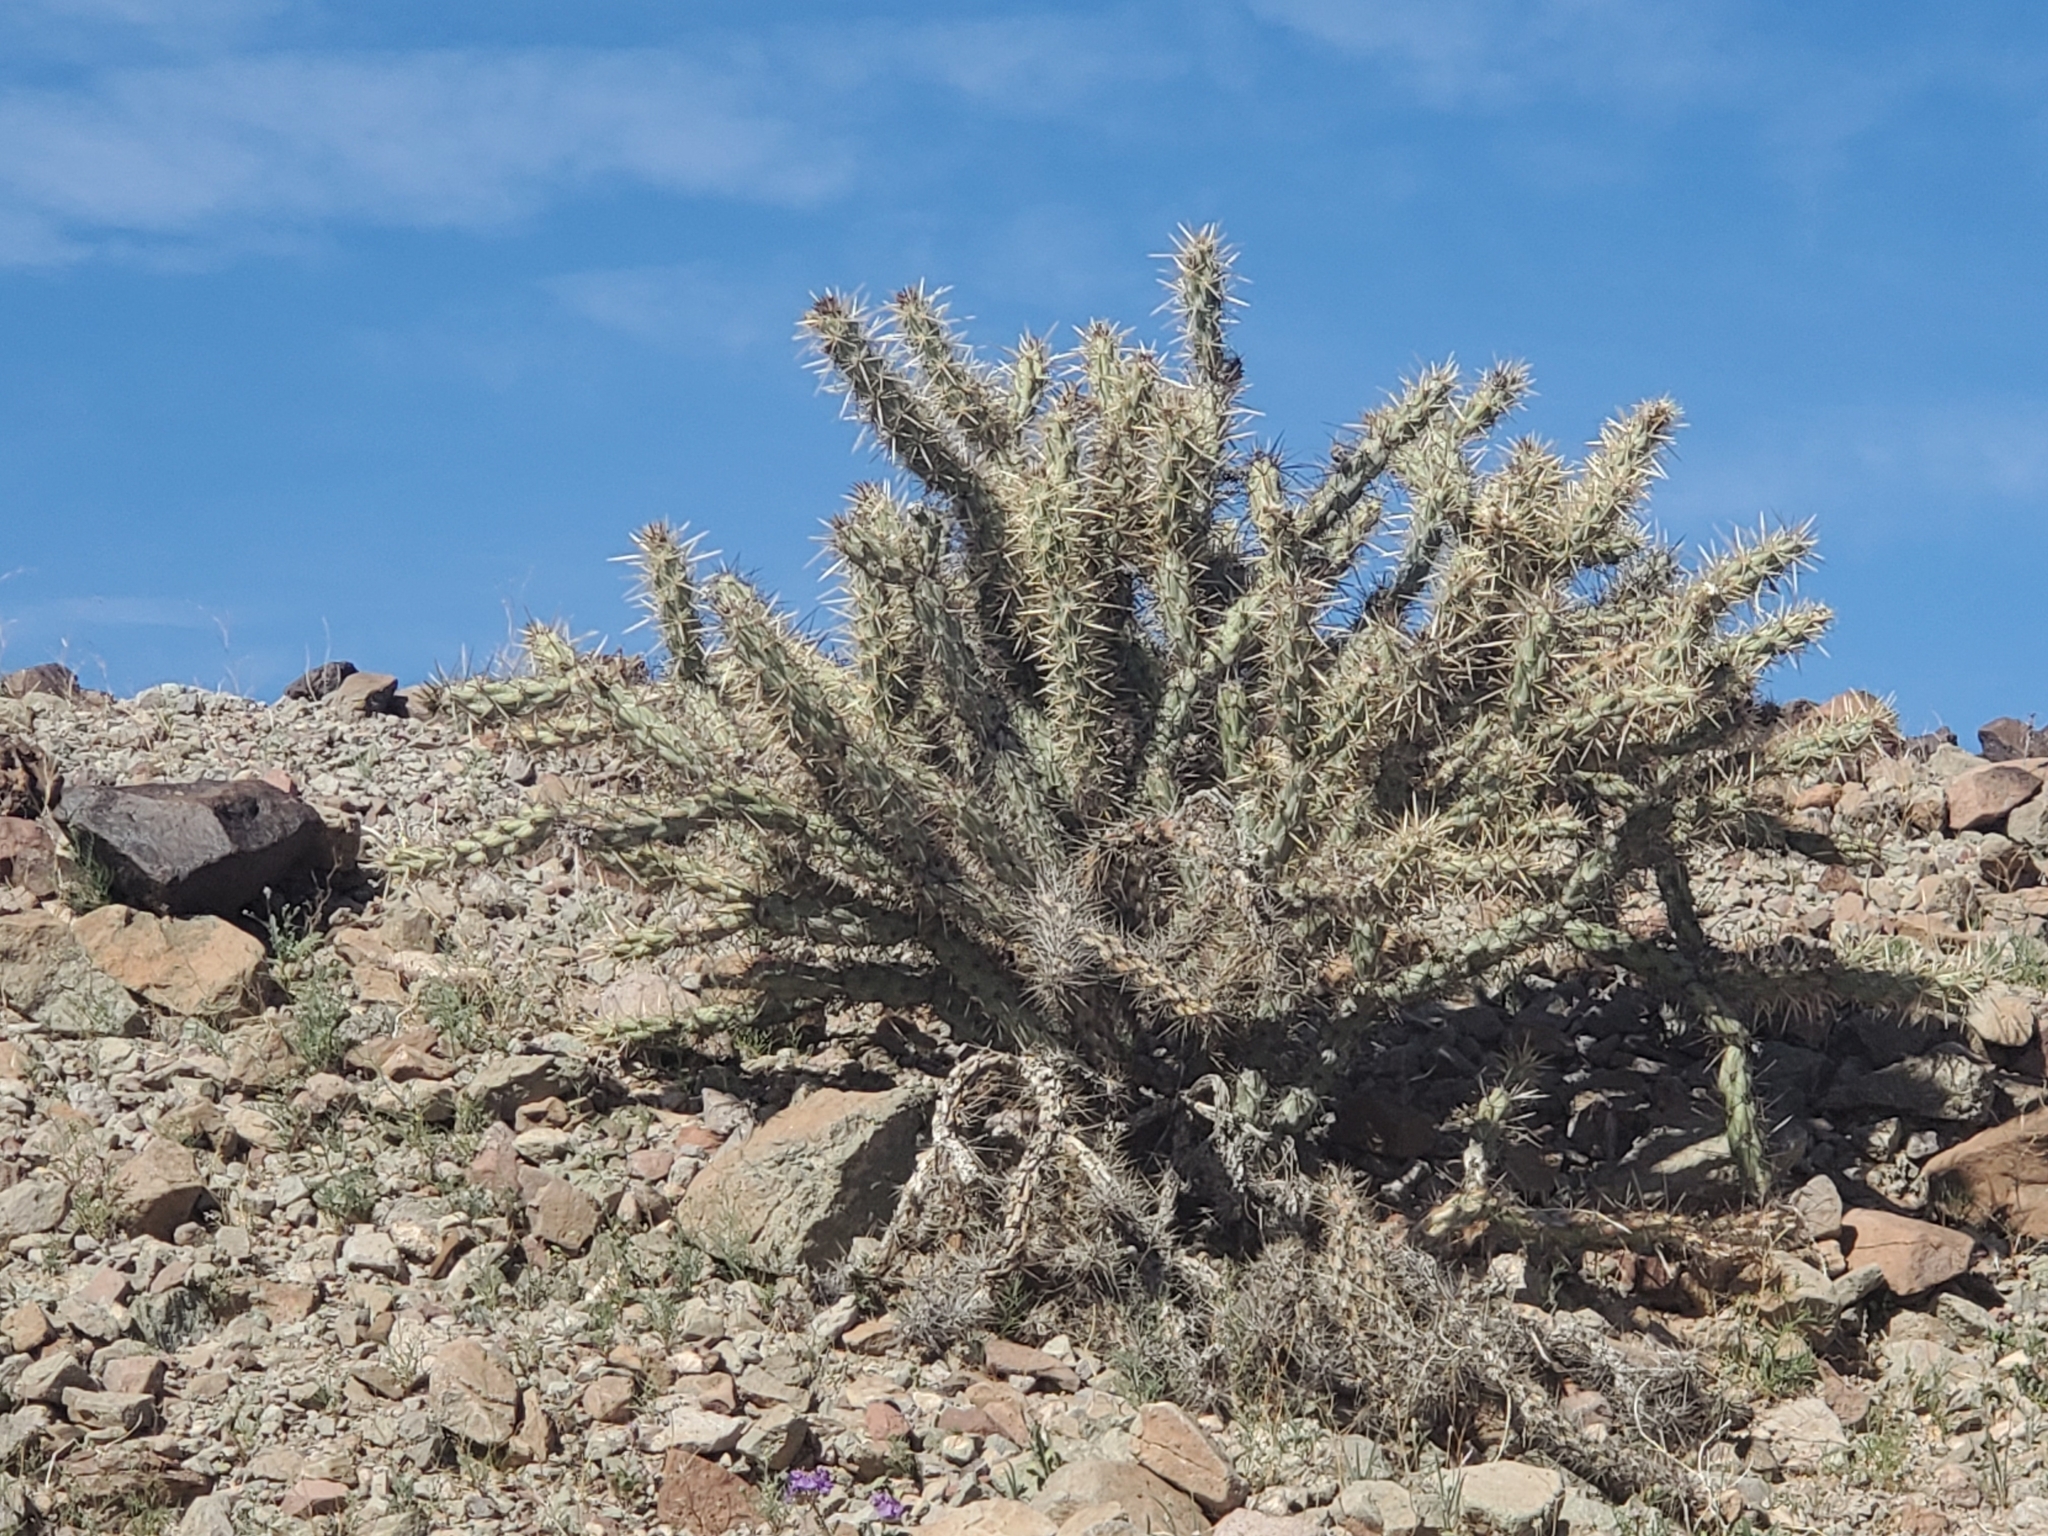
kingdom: Plantae
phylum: Tracheophyta
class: Magnoliopsida
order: Caryophyllales
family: Cactaceae
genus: Cylindropuntia
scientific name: Cylindropuntia acanthocarpa
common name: Buckhorn cholla
